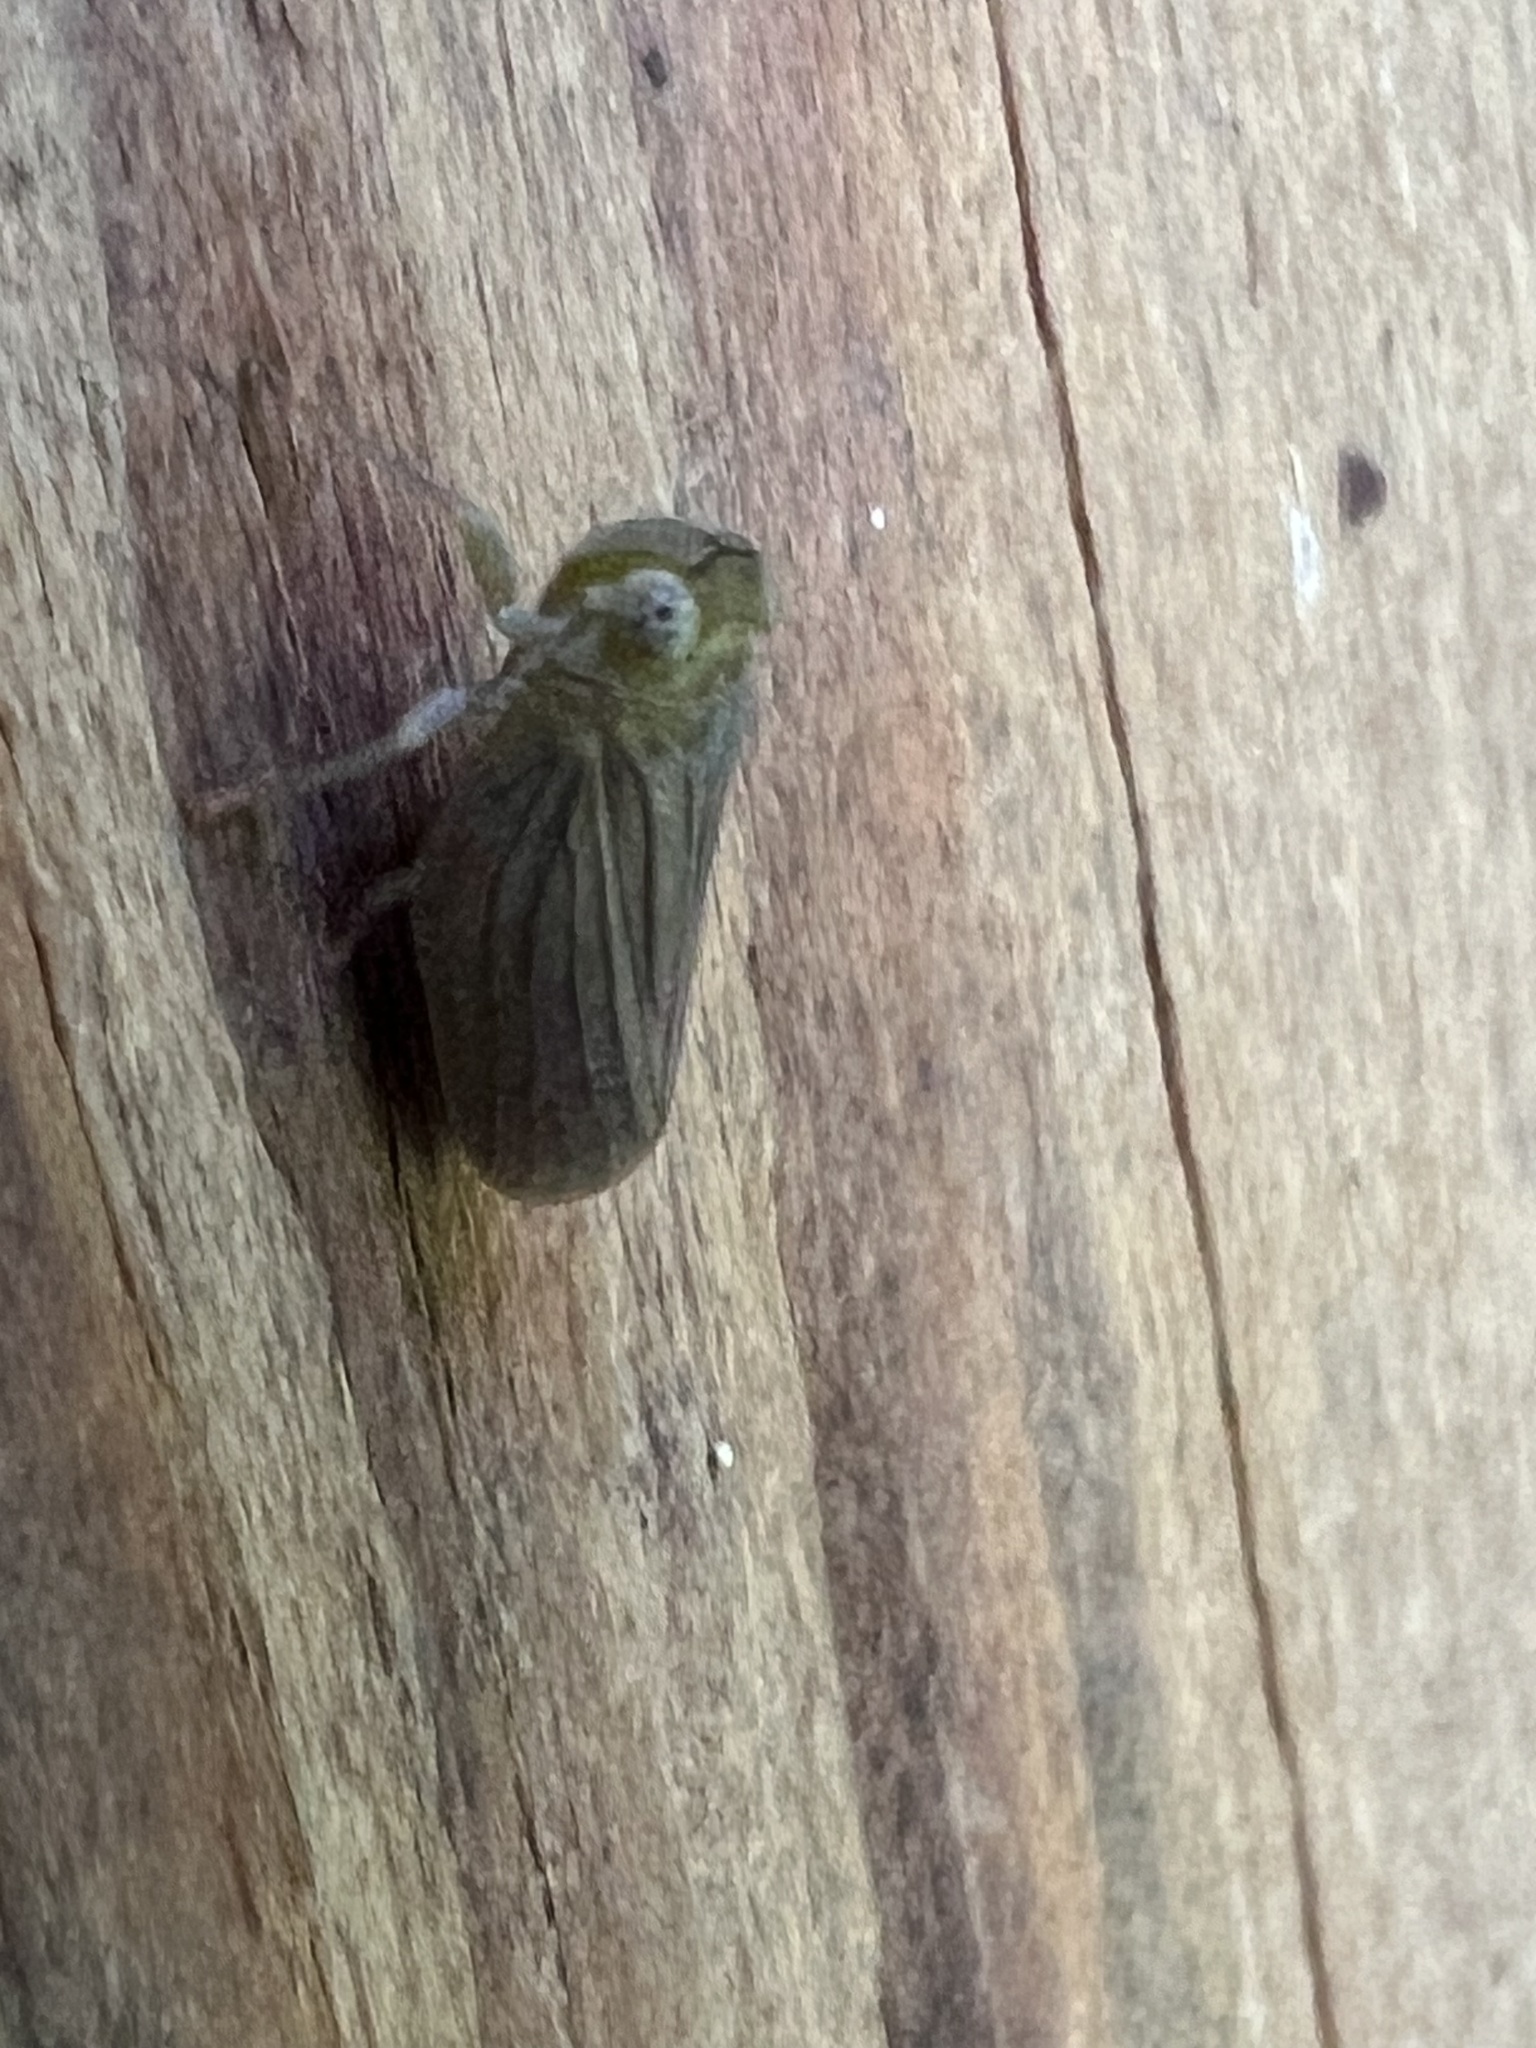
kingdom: Animalia
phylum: Arthropoda
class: Insecta
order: Hemiptera
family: Issidae
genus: Aplos
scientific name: Aplos simplex
